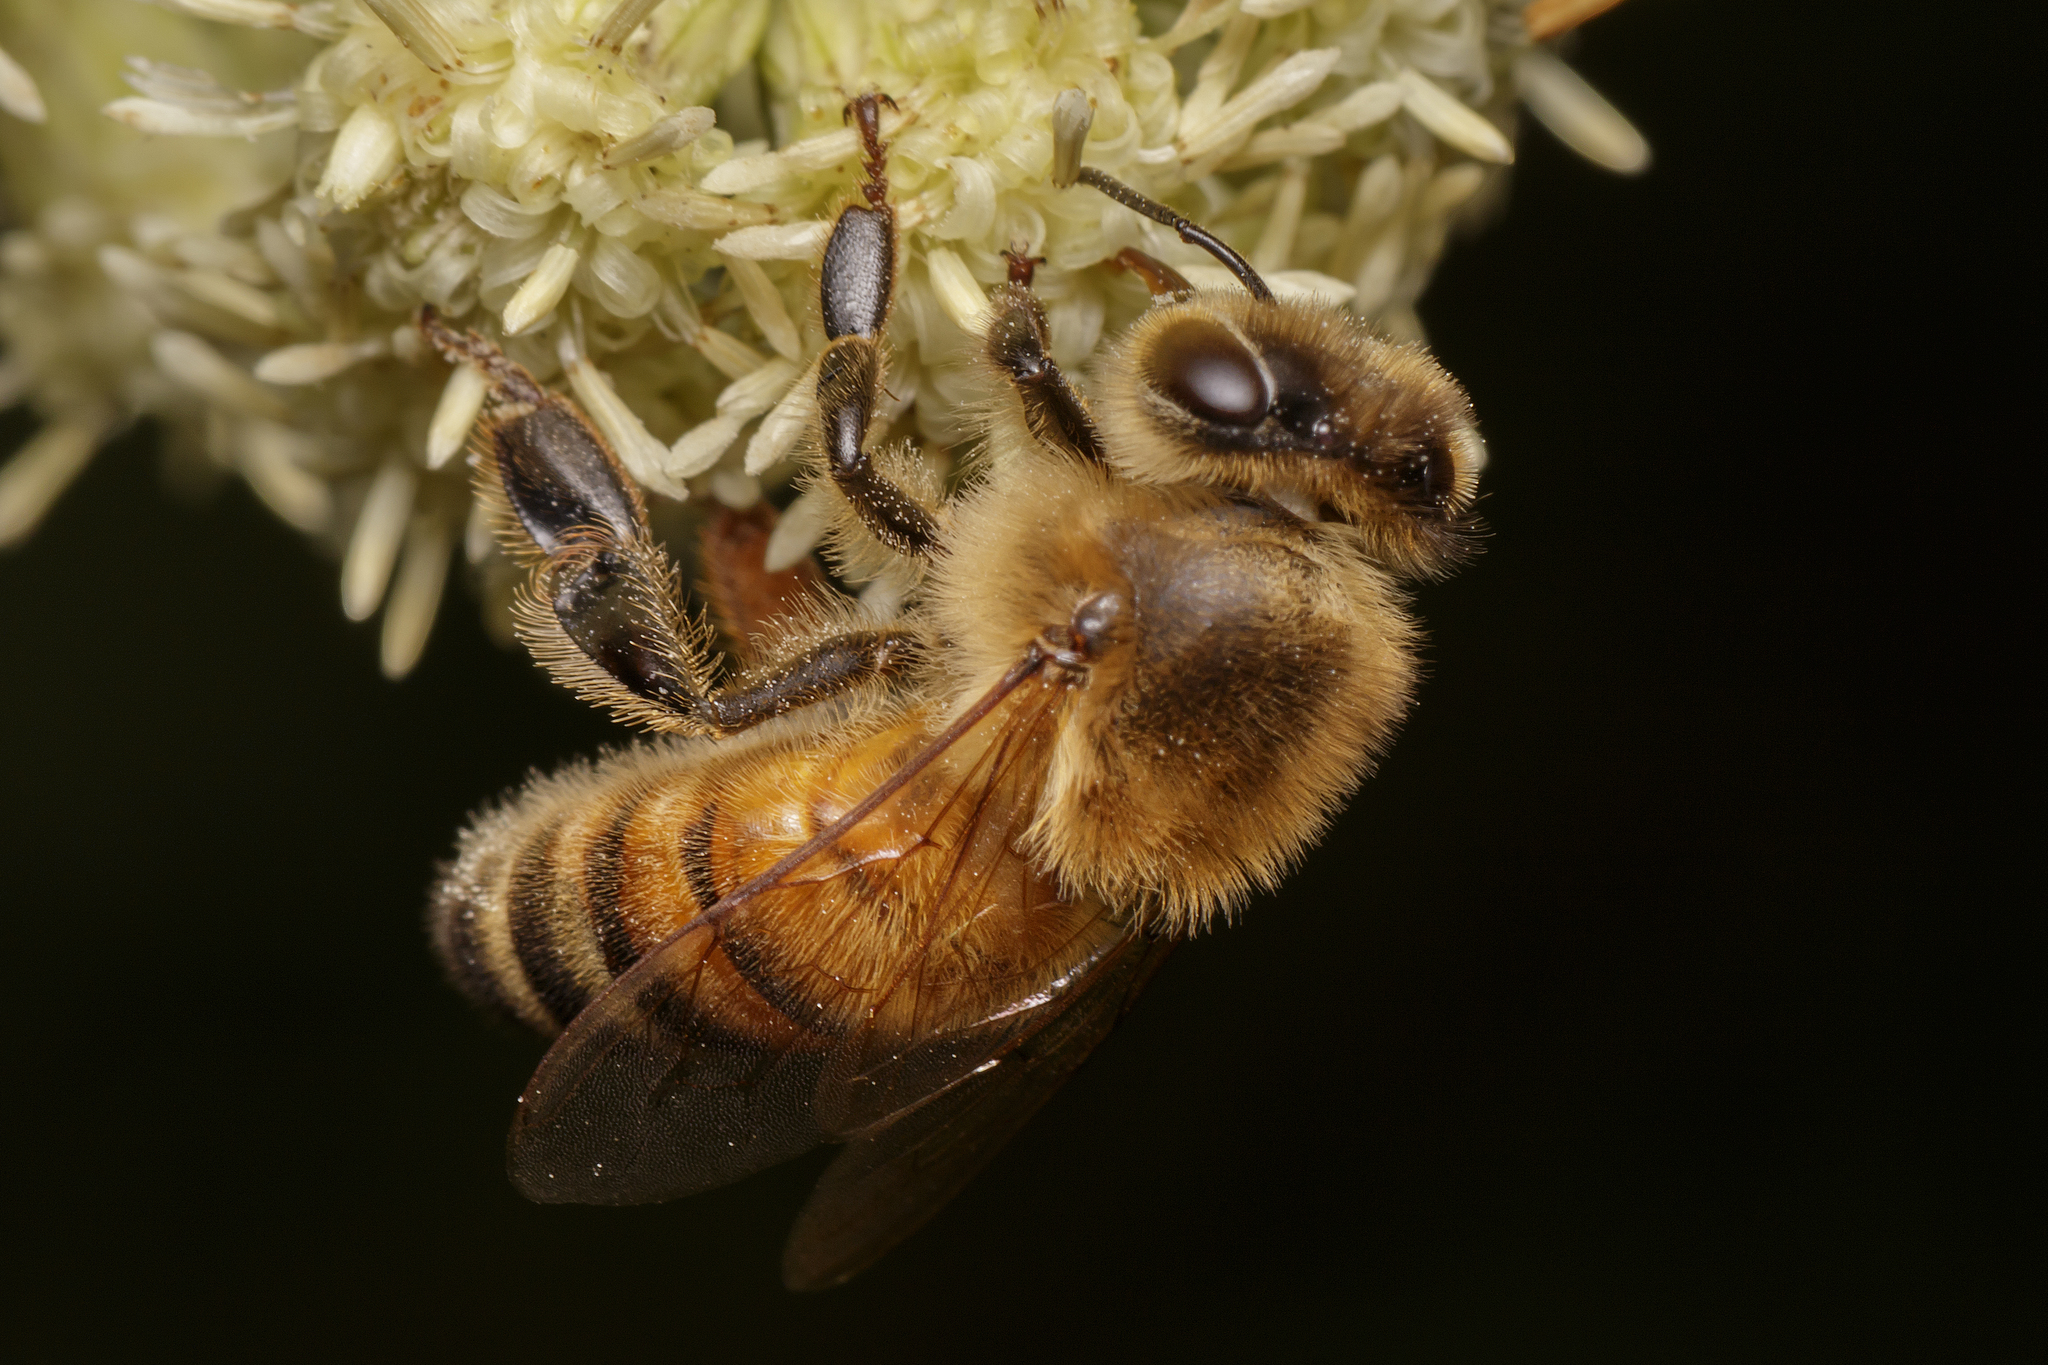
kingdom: Animalia
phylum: Arthropoda
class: Insecta
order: Hymenoptera
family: Apidae
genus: Apis
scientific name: Apis mellifera
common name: Honey bee
